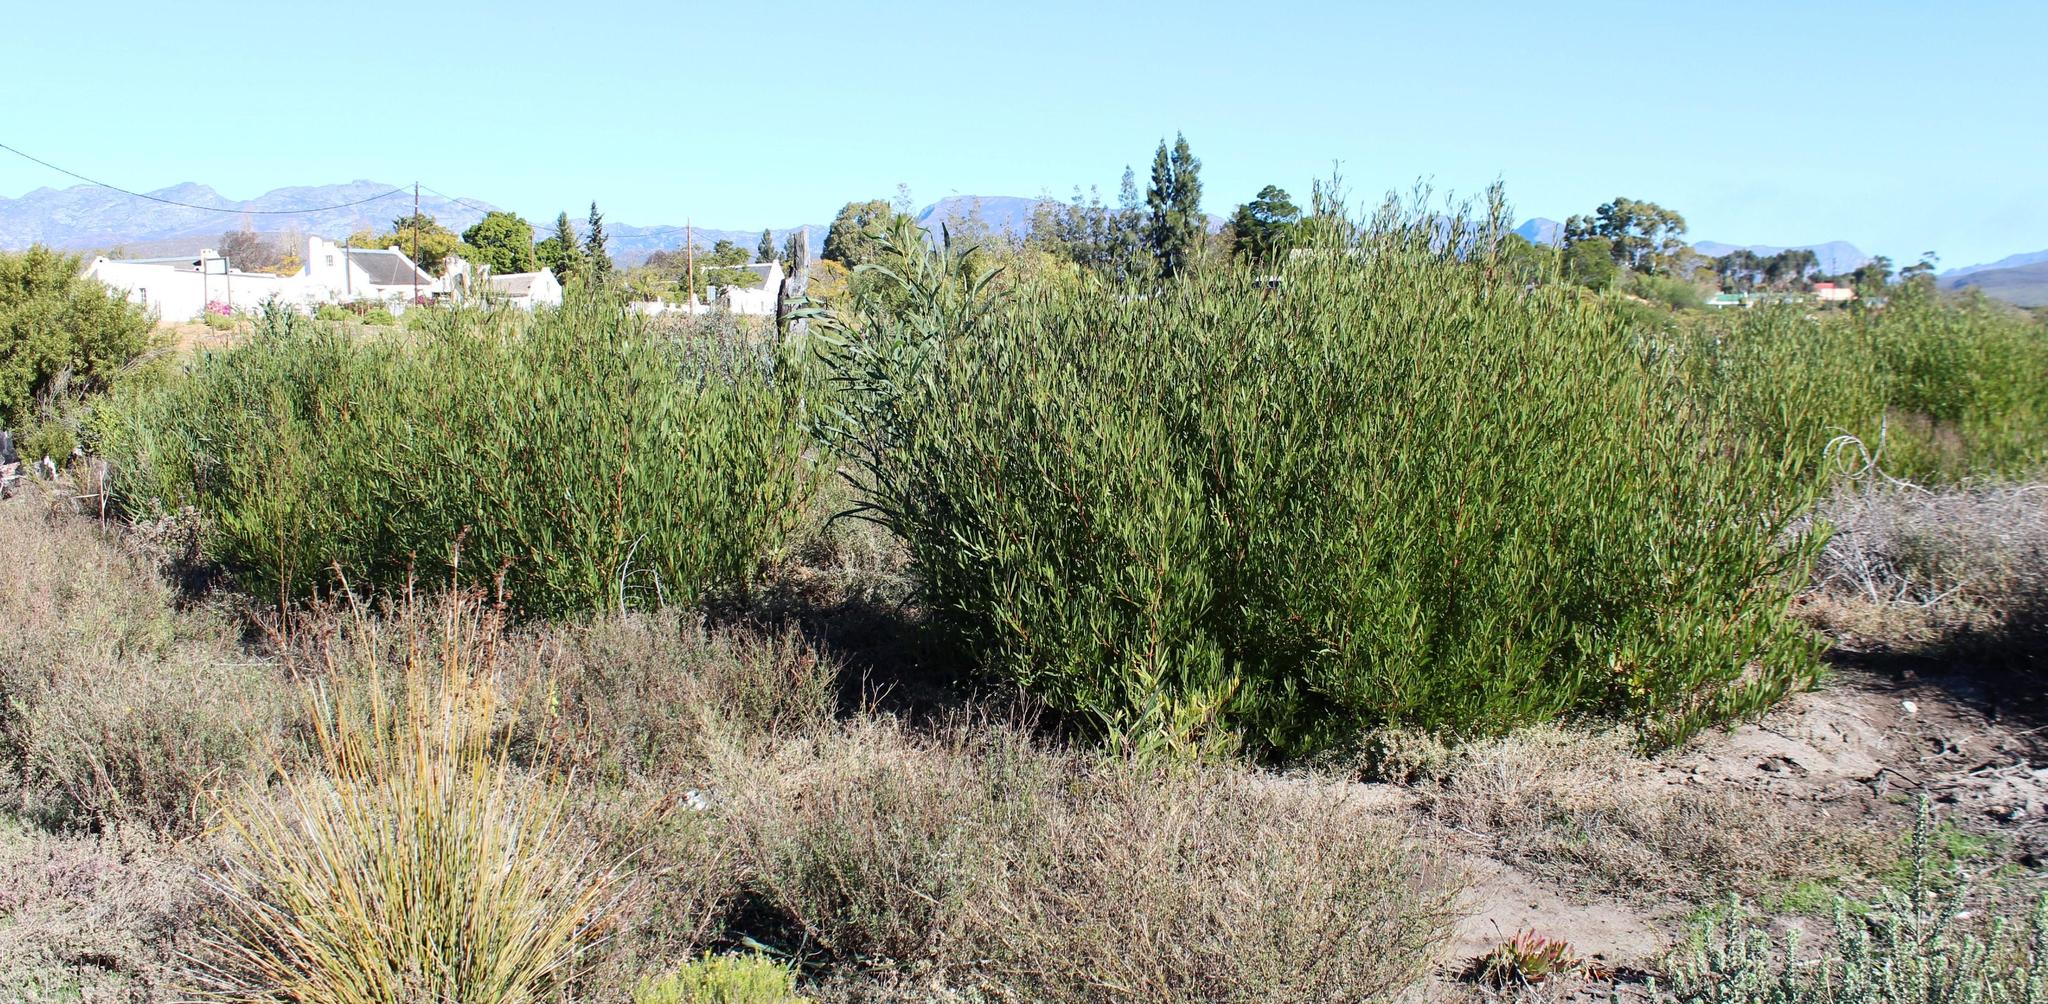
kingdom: Plantae
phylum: Tracheophyta
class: Magnoliopsida
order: Fabales
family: Fabaceae
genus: Acacia
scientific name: Acacia longifolia
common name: Sydney golden wattle
